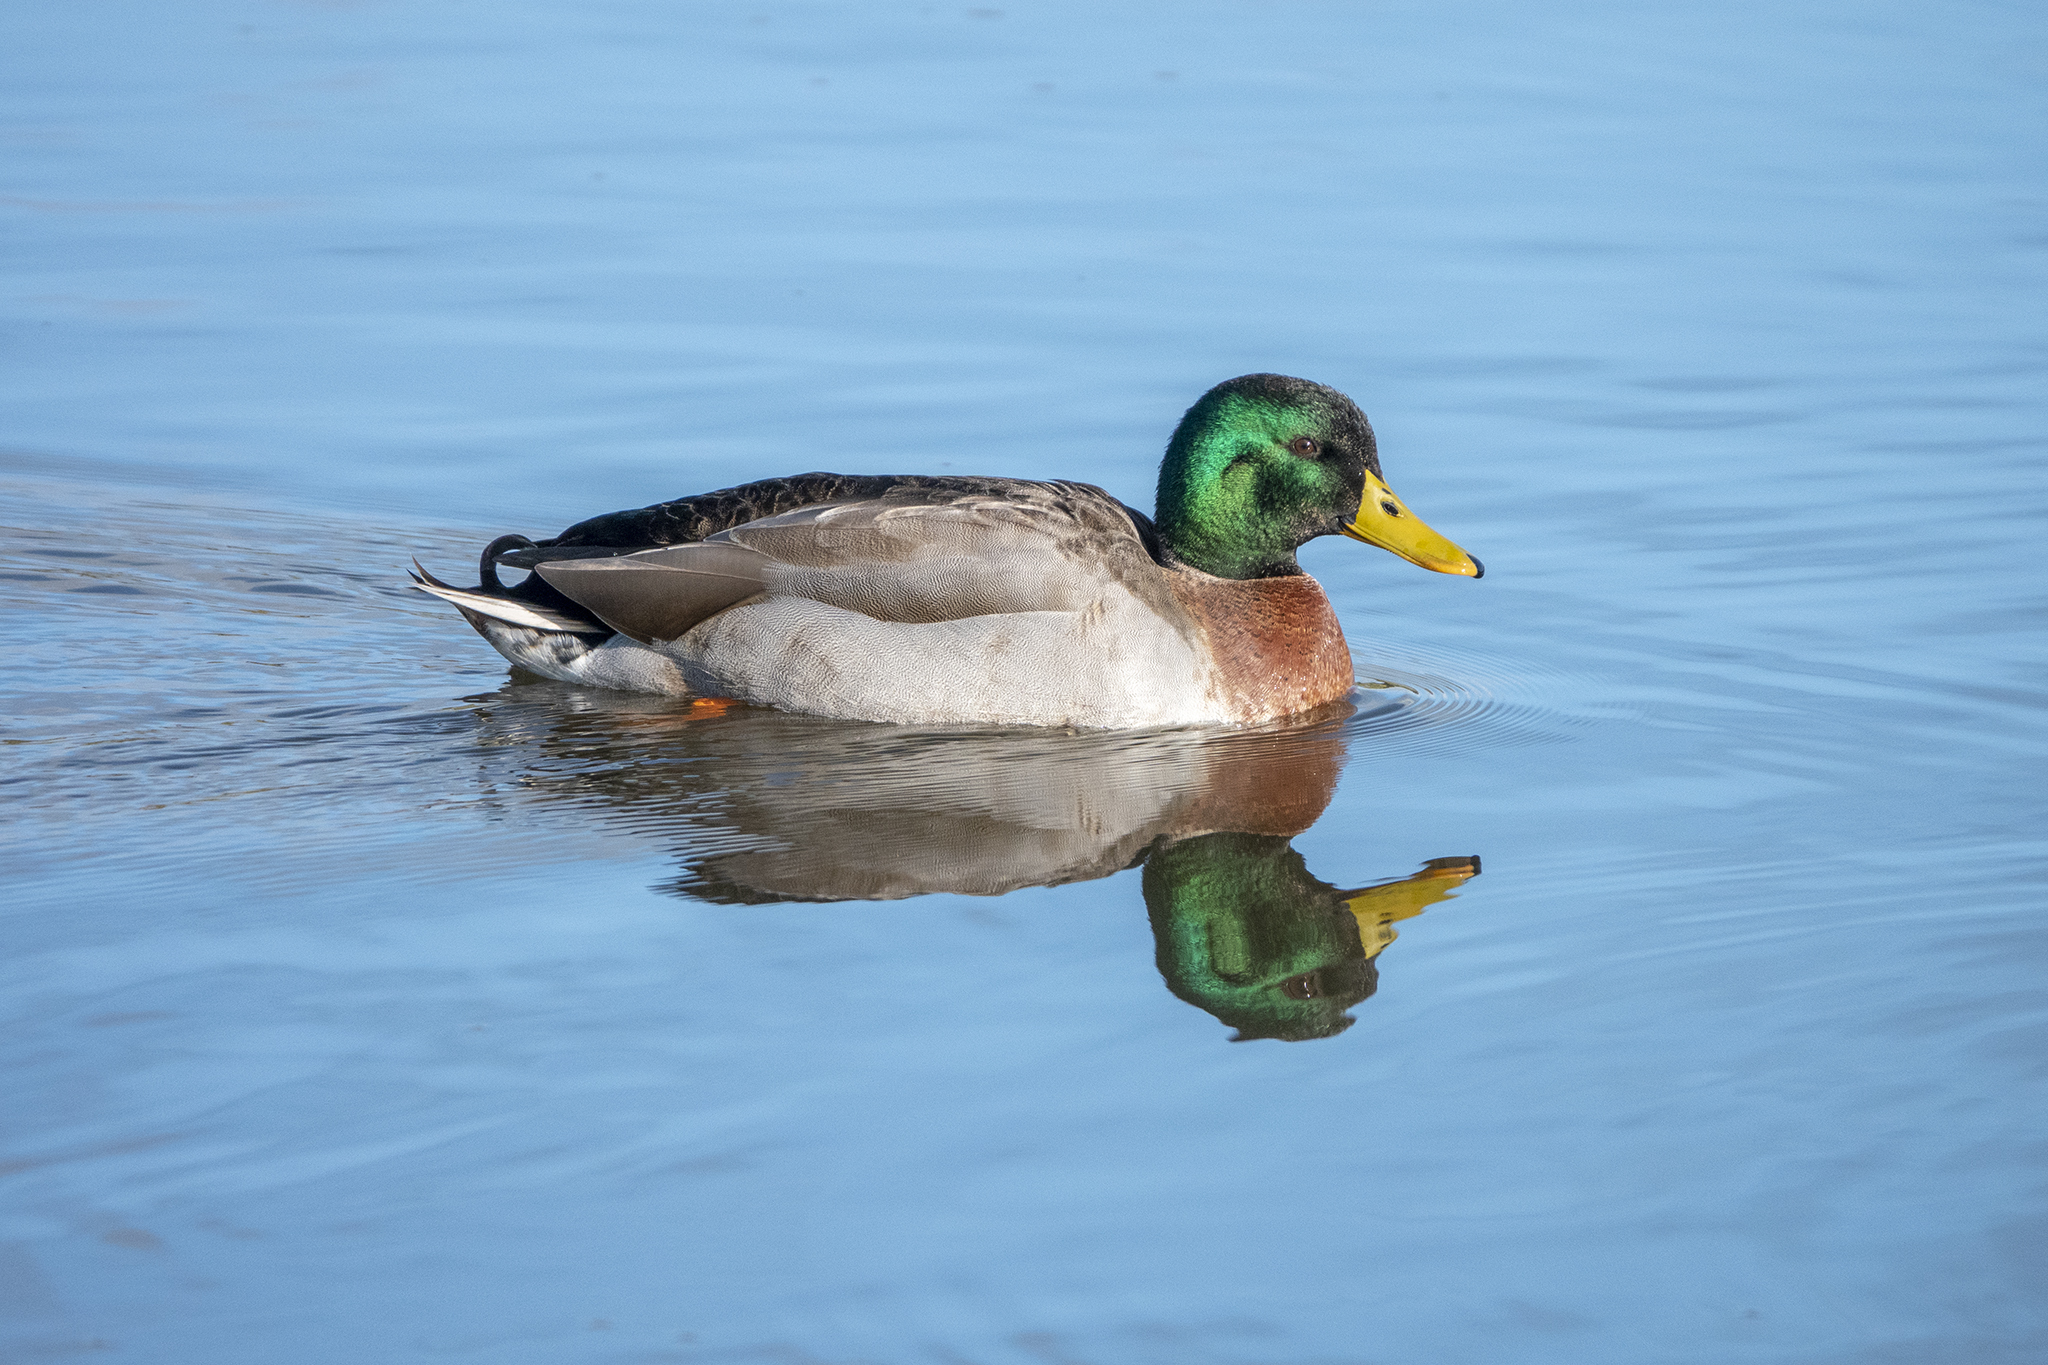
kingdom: Animalia
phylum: Chordata
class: Aves
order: Anseriformes
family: Anatidae
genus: Anas
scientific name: Anas platyrhynchos
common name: Mallard
